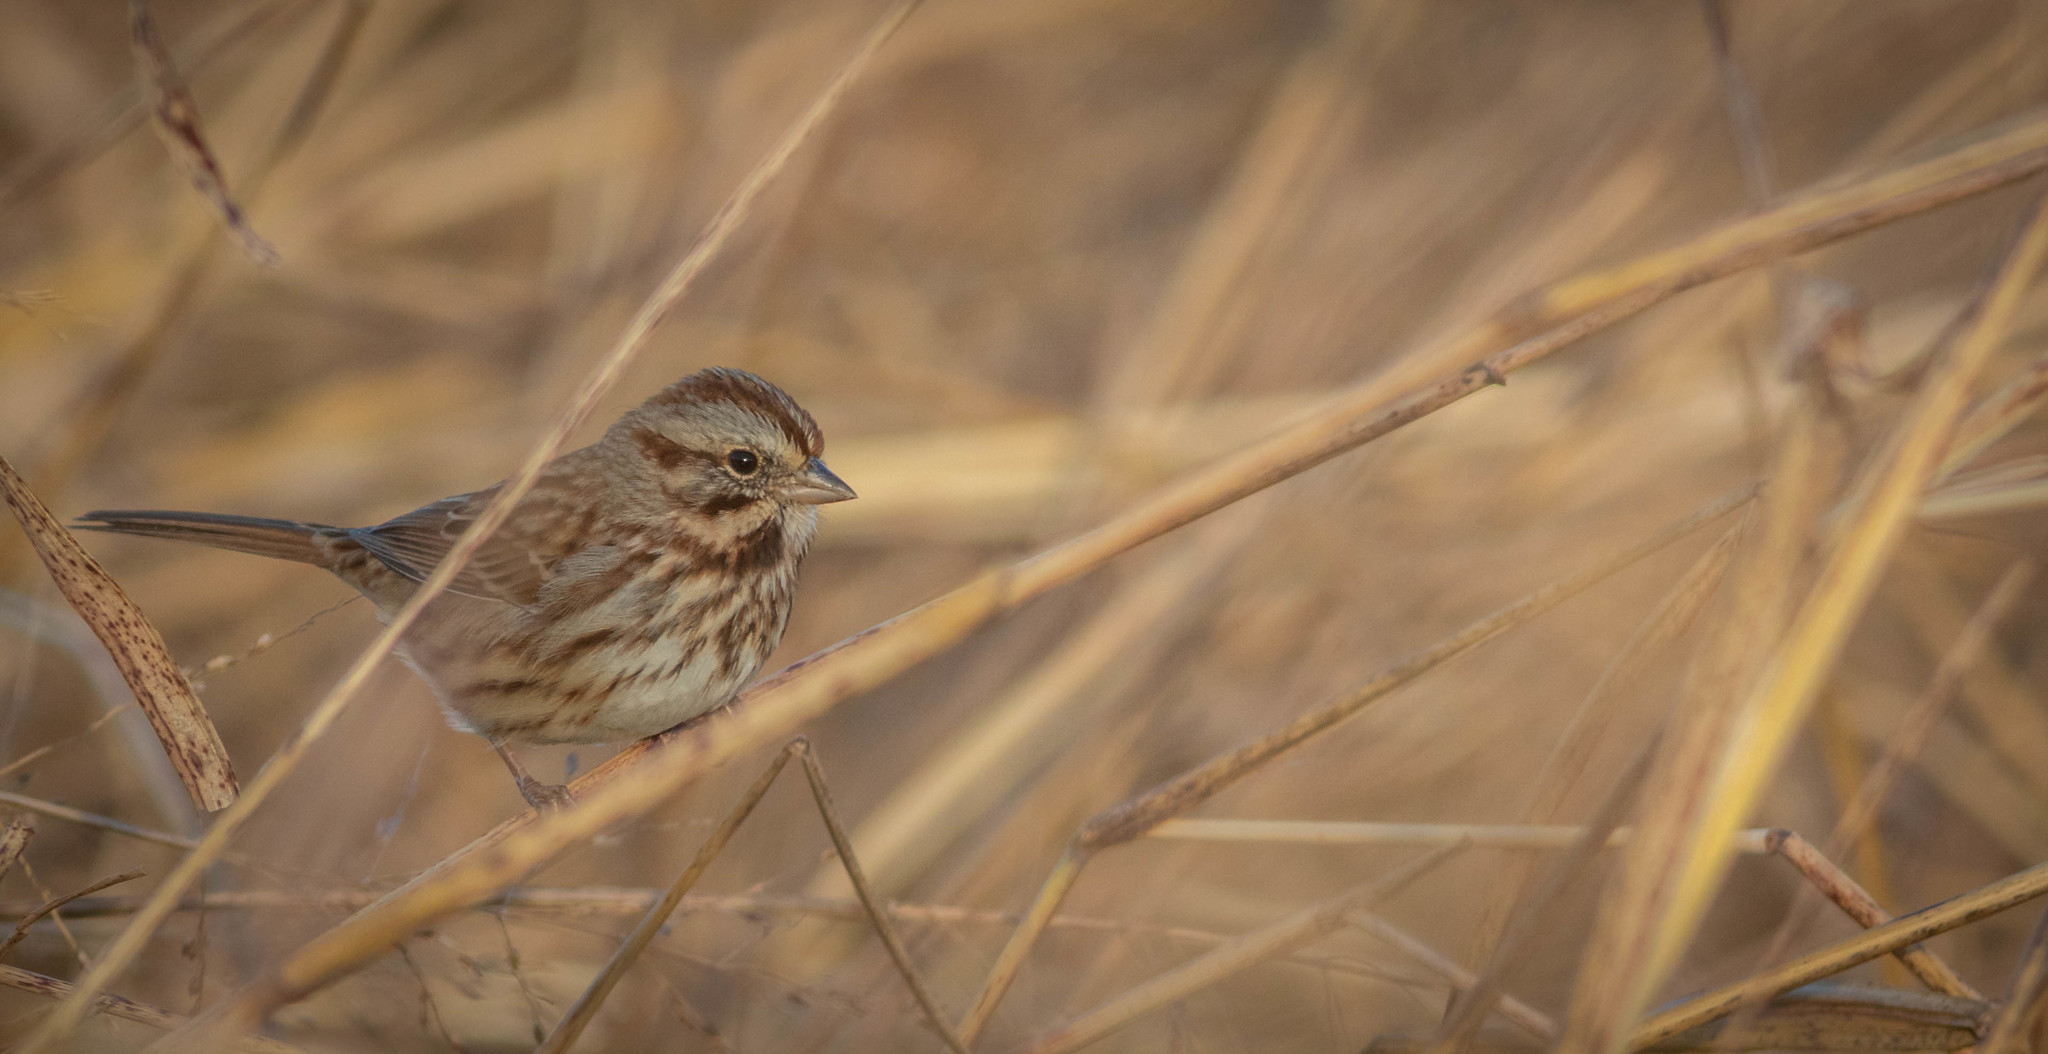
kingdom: Animalia
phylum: Chordata
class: Aves
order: Passeriformes
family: Passerellidae
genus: Melospiza
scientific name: Melospiza melodia
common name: Song sparrow
